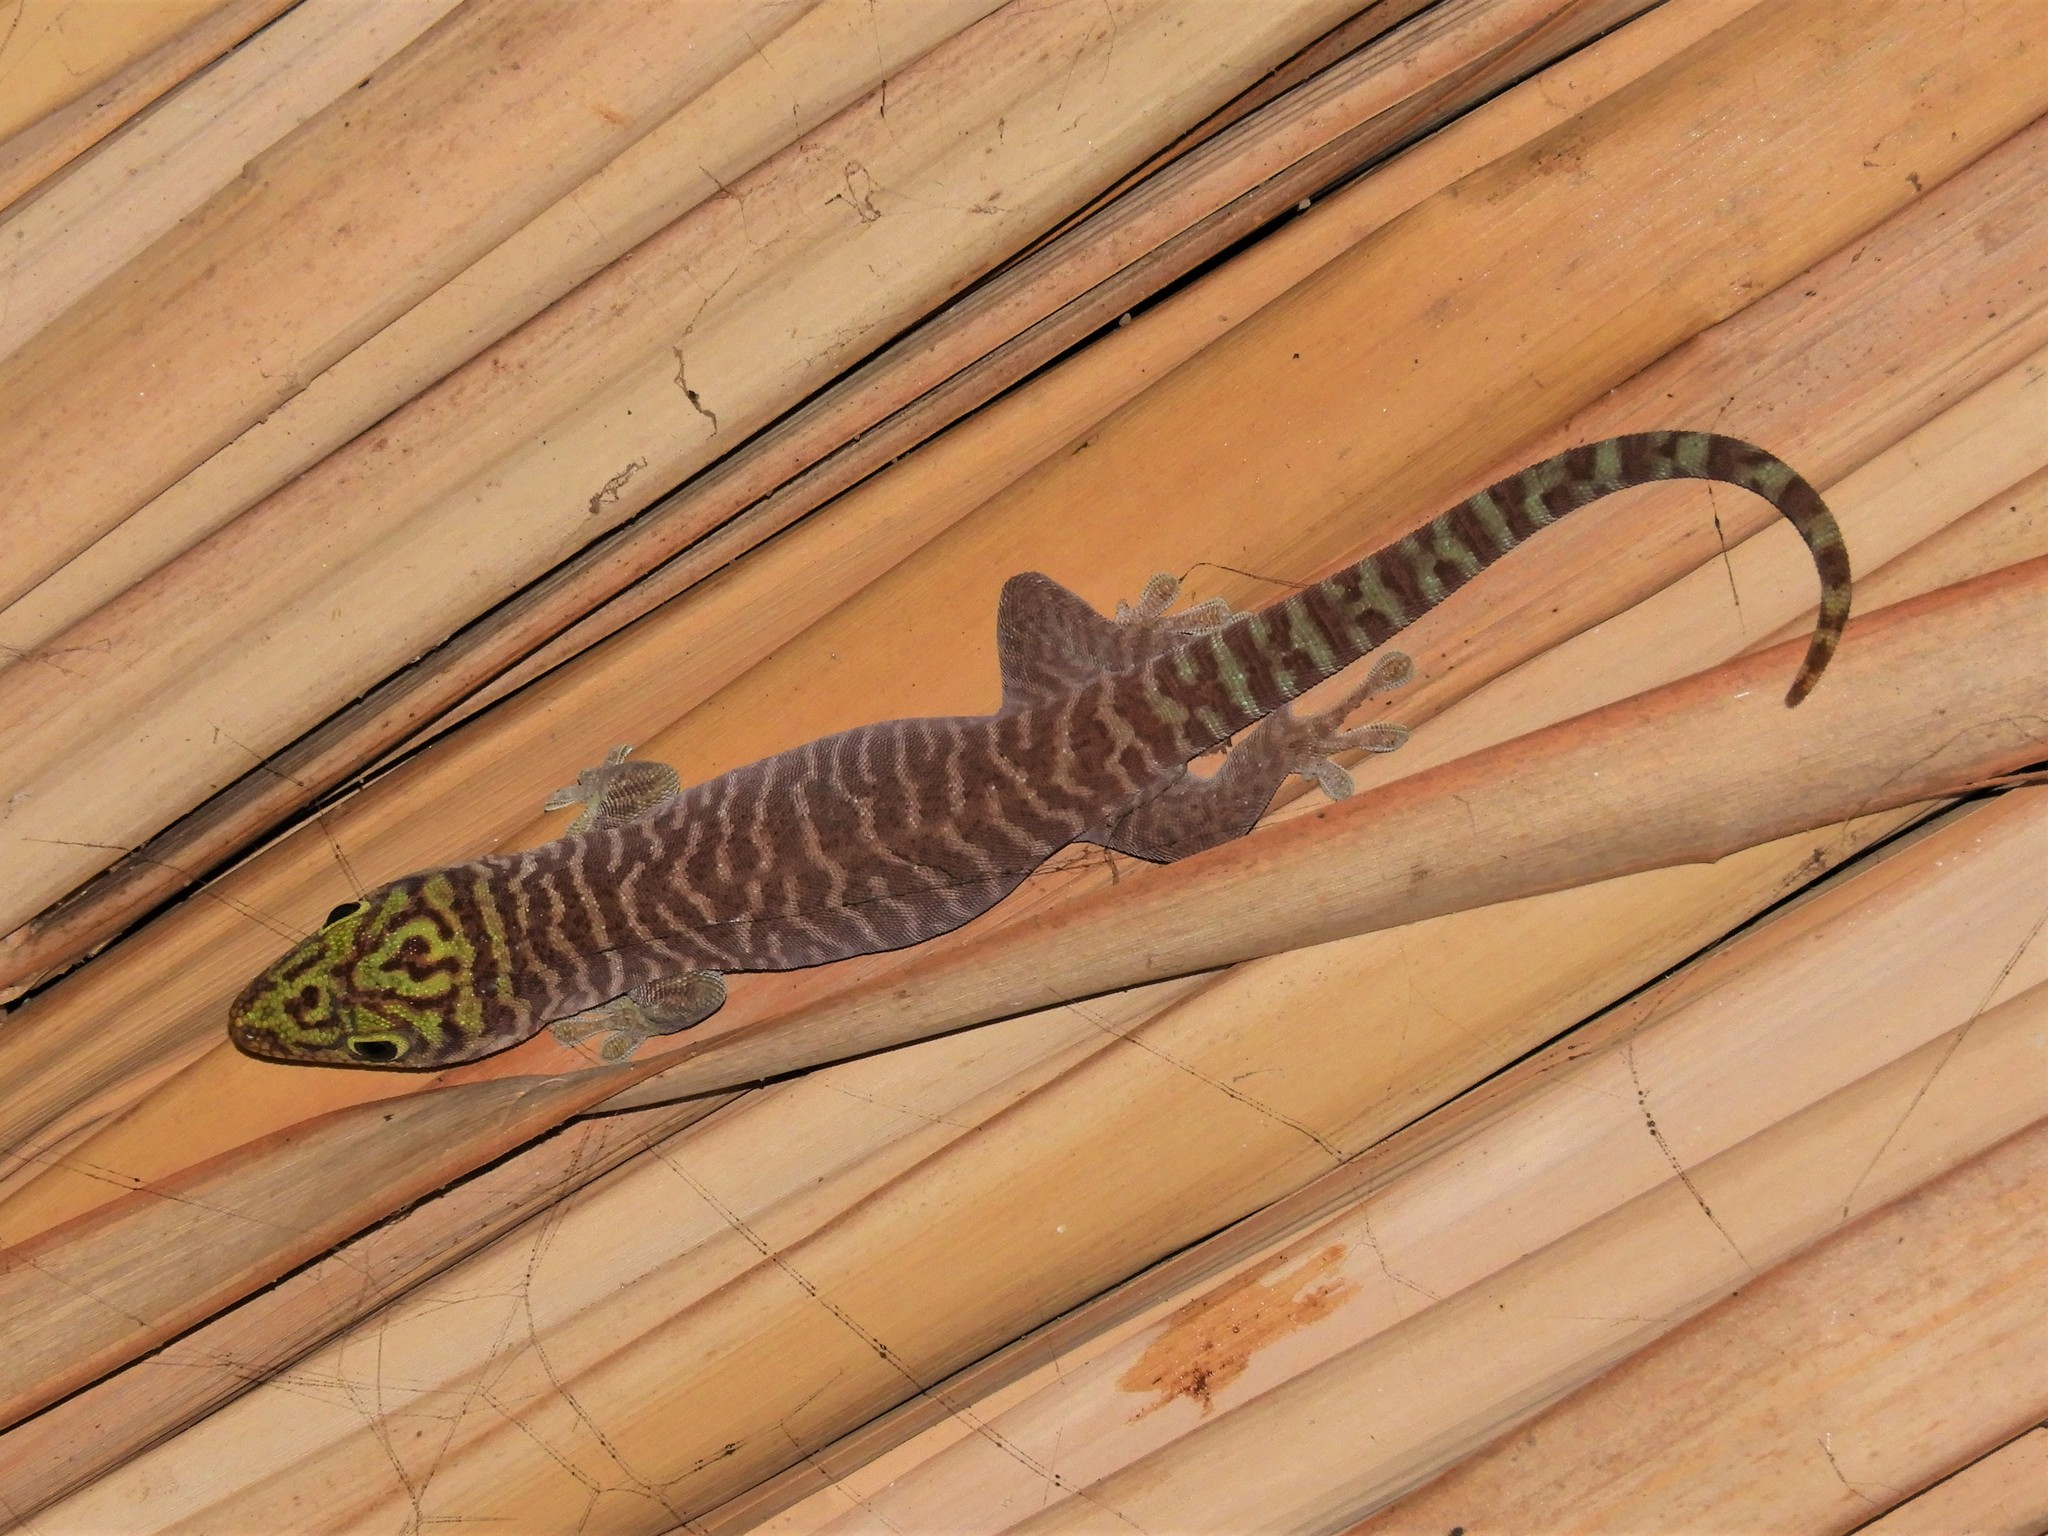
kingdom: Animalia
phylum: Chordata
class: Squamata
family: Gekkonidae
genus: Phelsuma
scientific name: Phelsuma standingi
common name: Standing's day gecko
